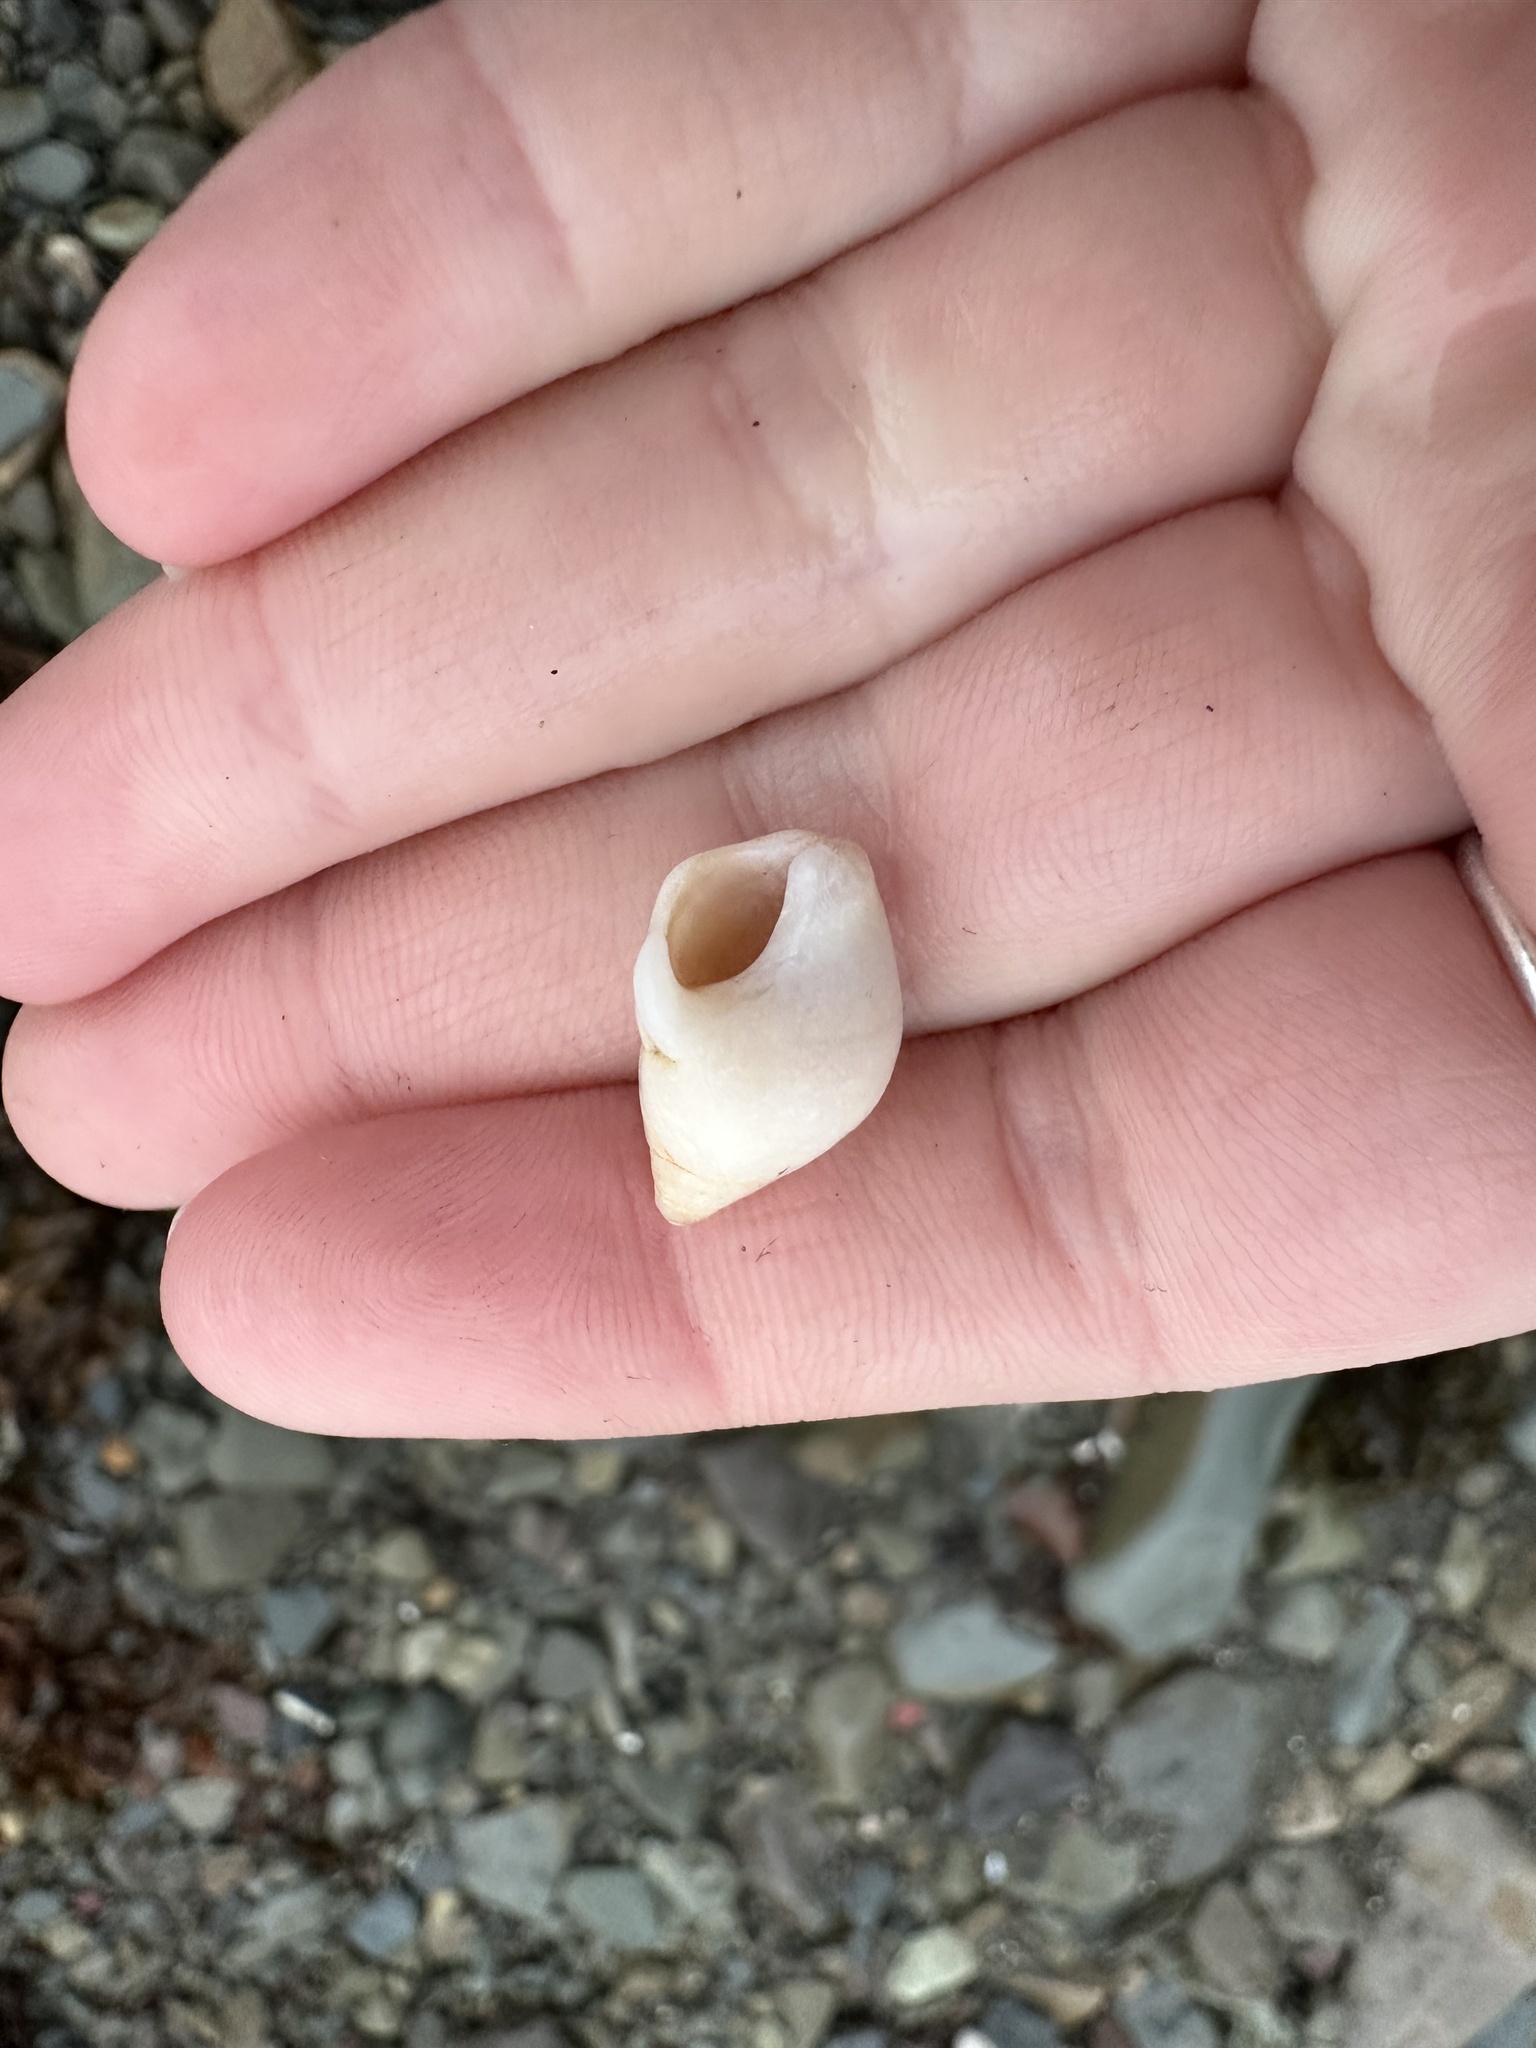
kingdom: Animalia
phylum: Mollusca
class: Gastropoda
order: Neogastropoda
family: Muricidae
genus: Nucella
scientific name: Nucella lapillus
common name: Dog whelk
